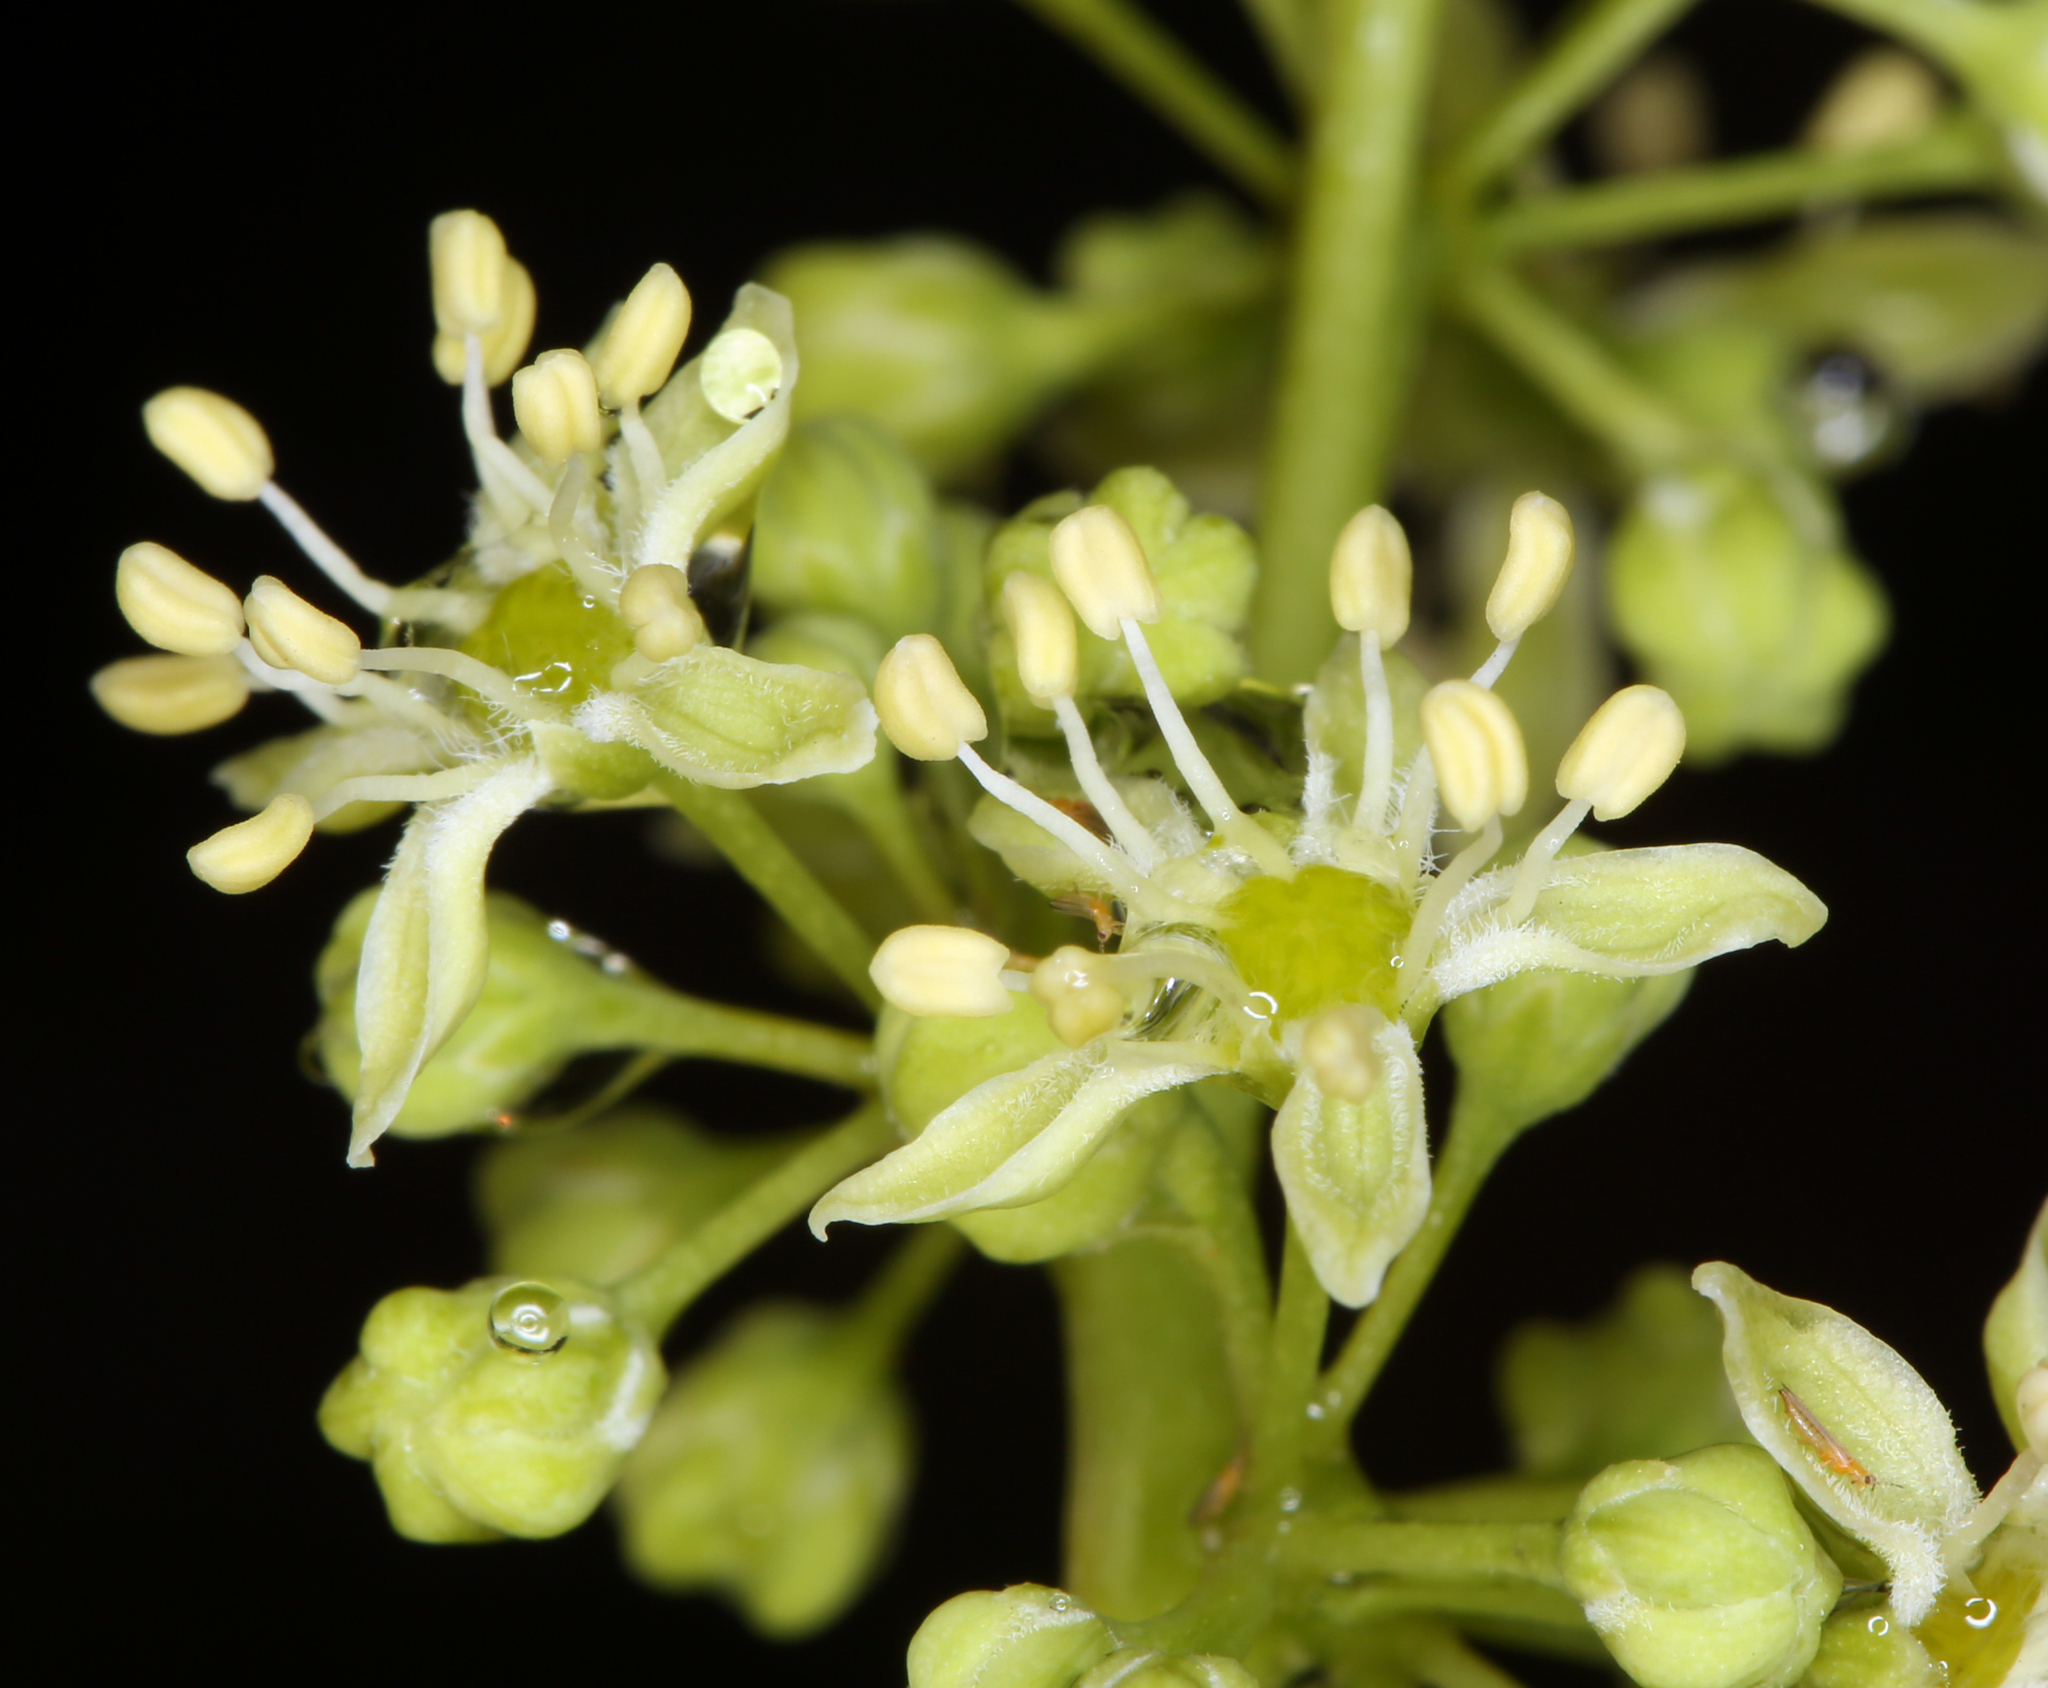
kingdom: Plantae
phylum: Tracheophyta
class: Magnoliopsida
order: Sapindales
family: Simaroubaceae
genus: Ailanthus
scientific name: Ailanthus altissima
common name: Tree-of-heaven
